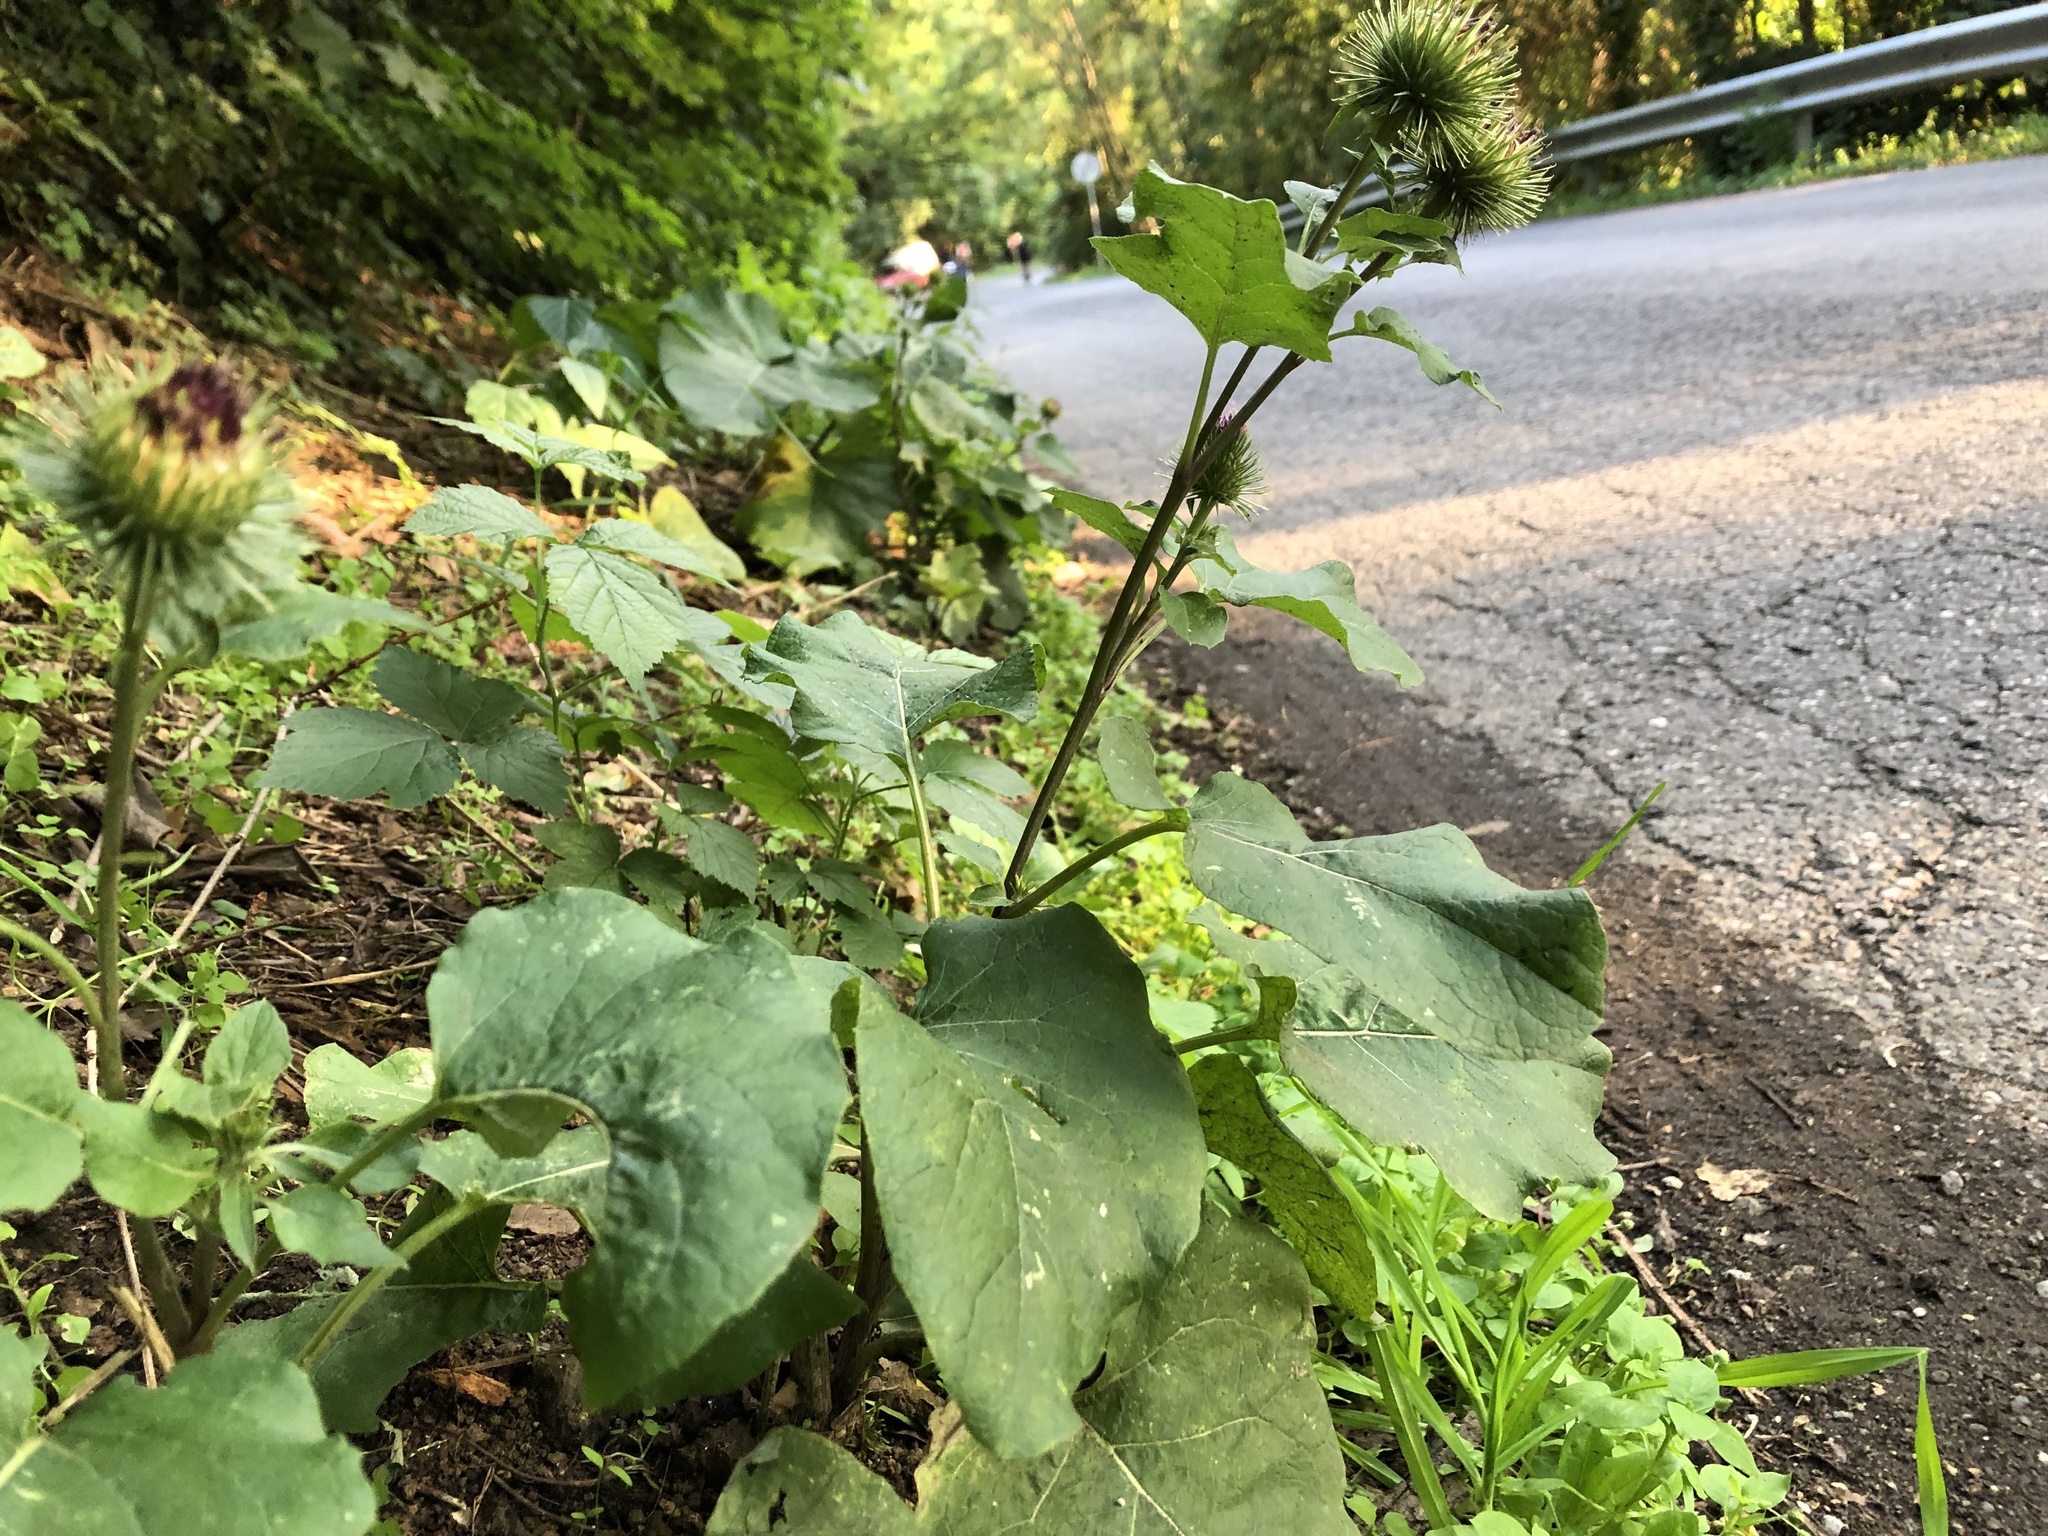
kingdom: Plantae
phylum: Tracheophyta
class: Magnoliopsida
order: Asterales
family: Asteraceae
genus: Arctium
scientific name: Arctium lappa
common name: Greater burdock
